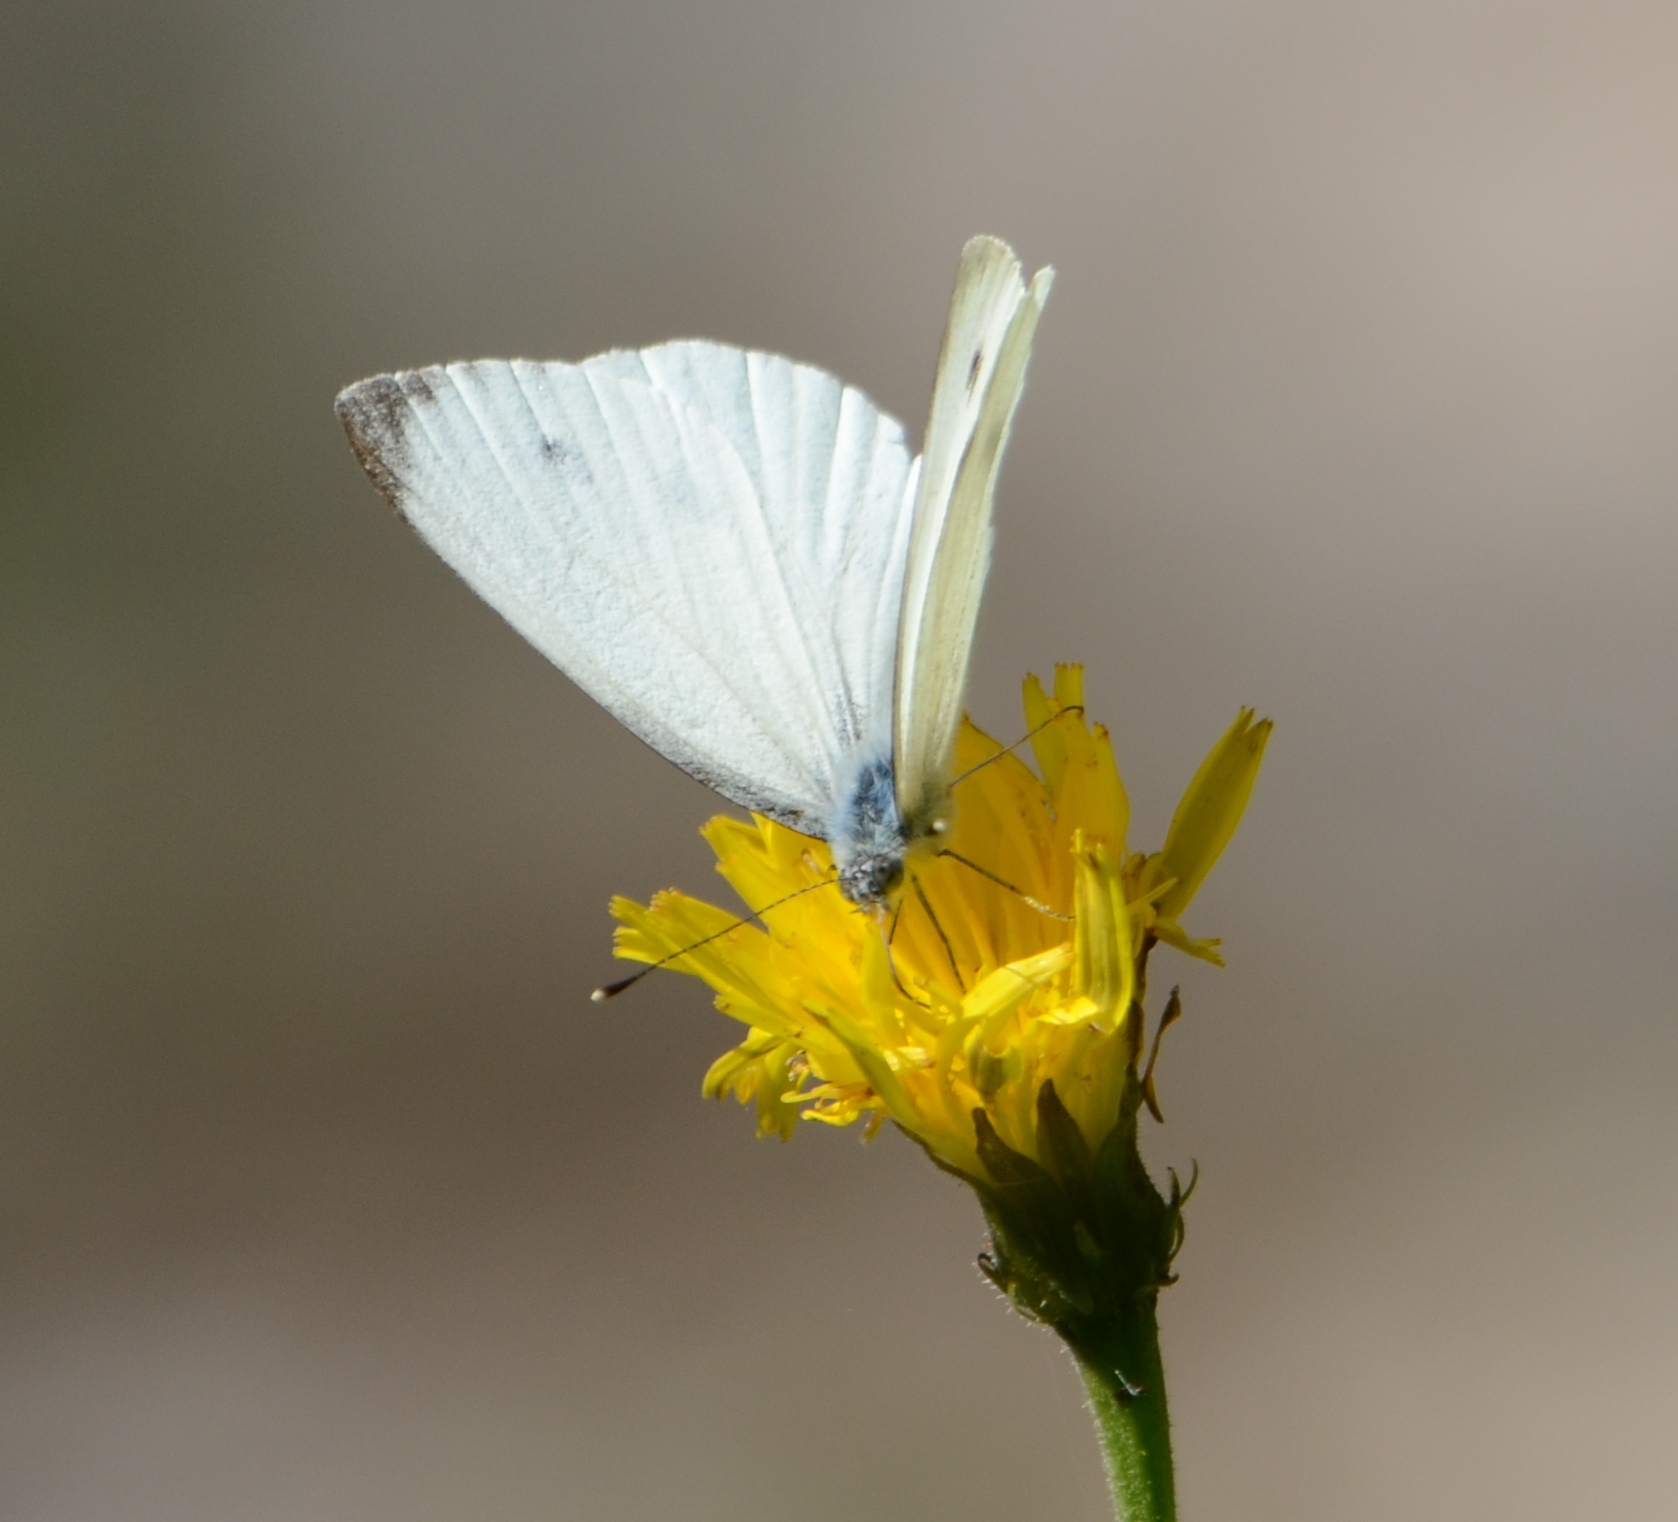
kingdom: Animalia
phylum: Arthropoda
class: Insecta
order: Lepidoptera
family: Pieridae
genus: Pieris
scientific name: Pieris napi
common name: Green-veined white
